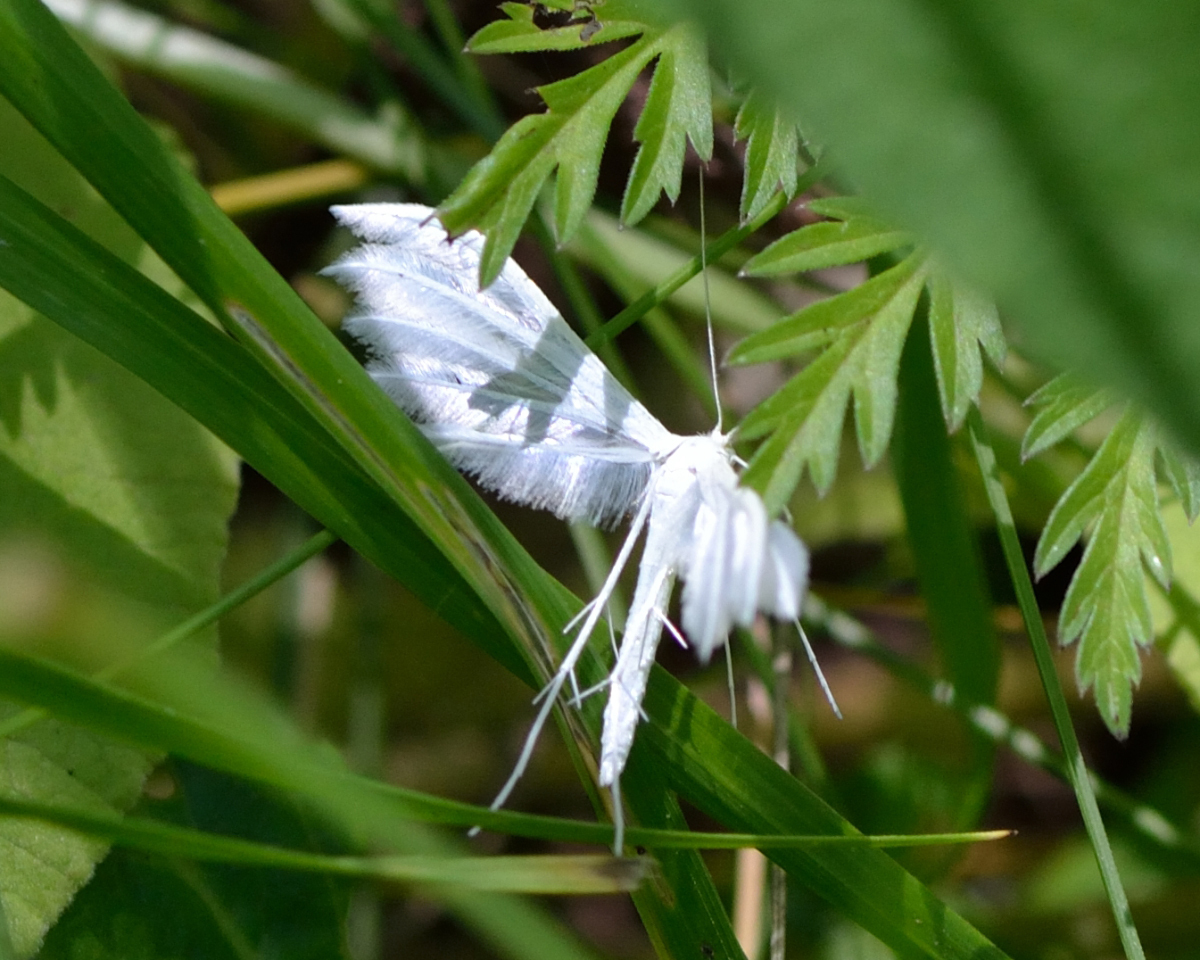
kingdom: Animalia
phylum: Arthropoda
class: Insecta
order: Lepidoptera
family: Pterophoridae
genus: Pterophorus
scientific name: Pterophorus pentadactyla
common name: White plume moth
